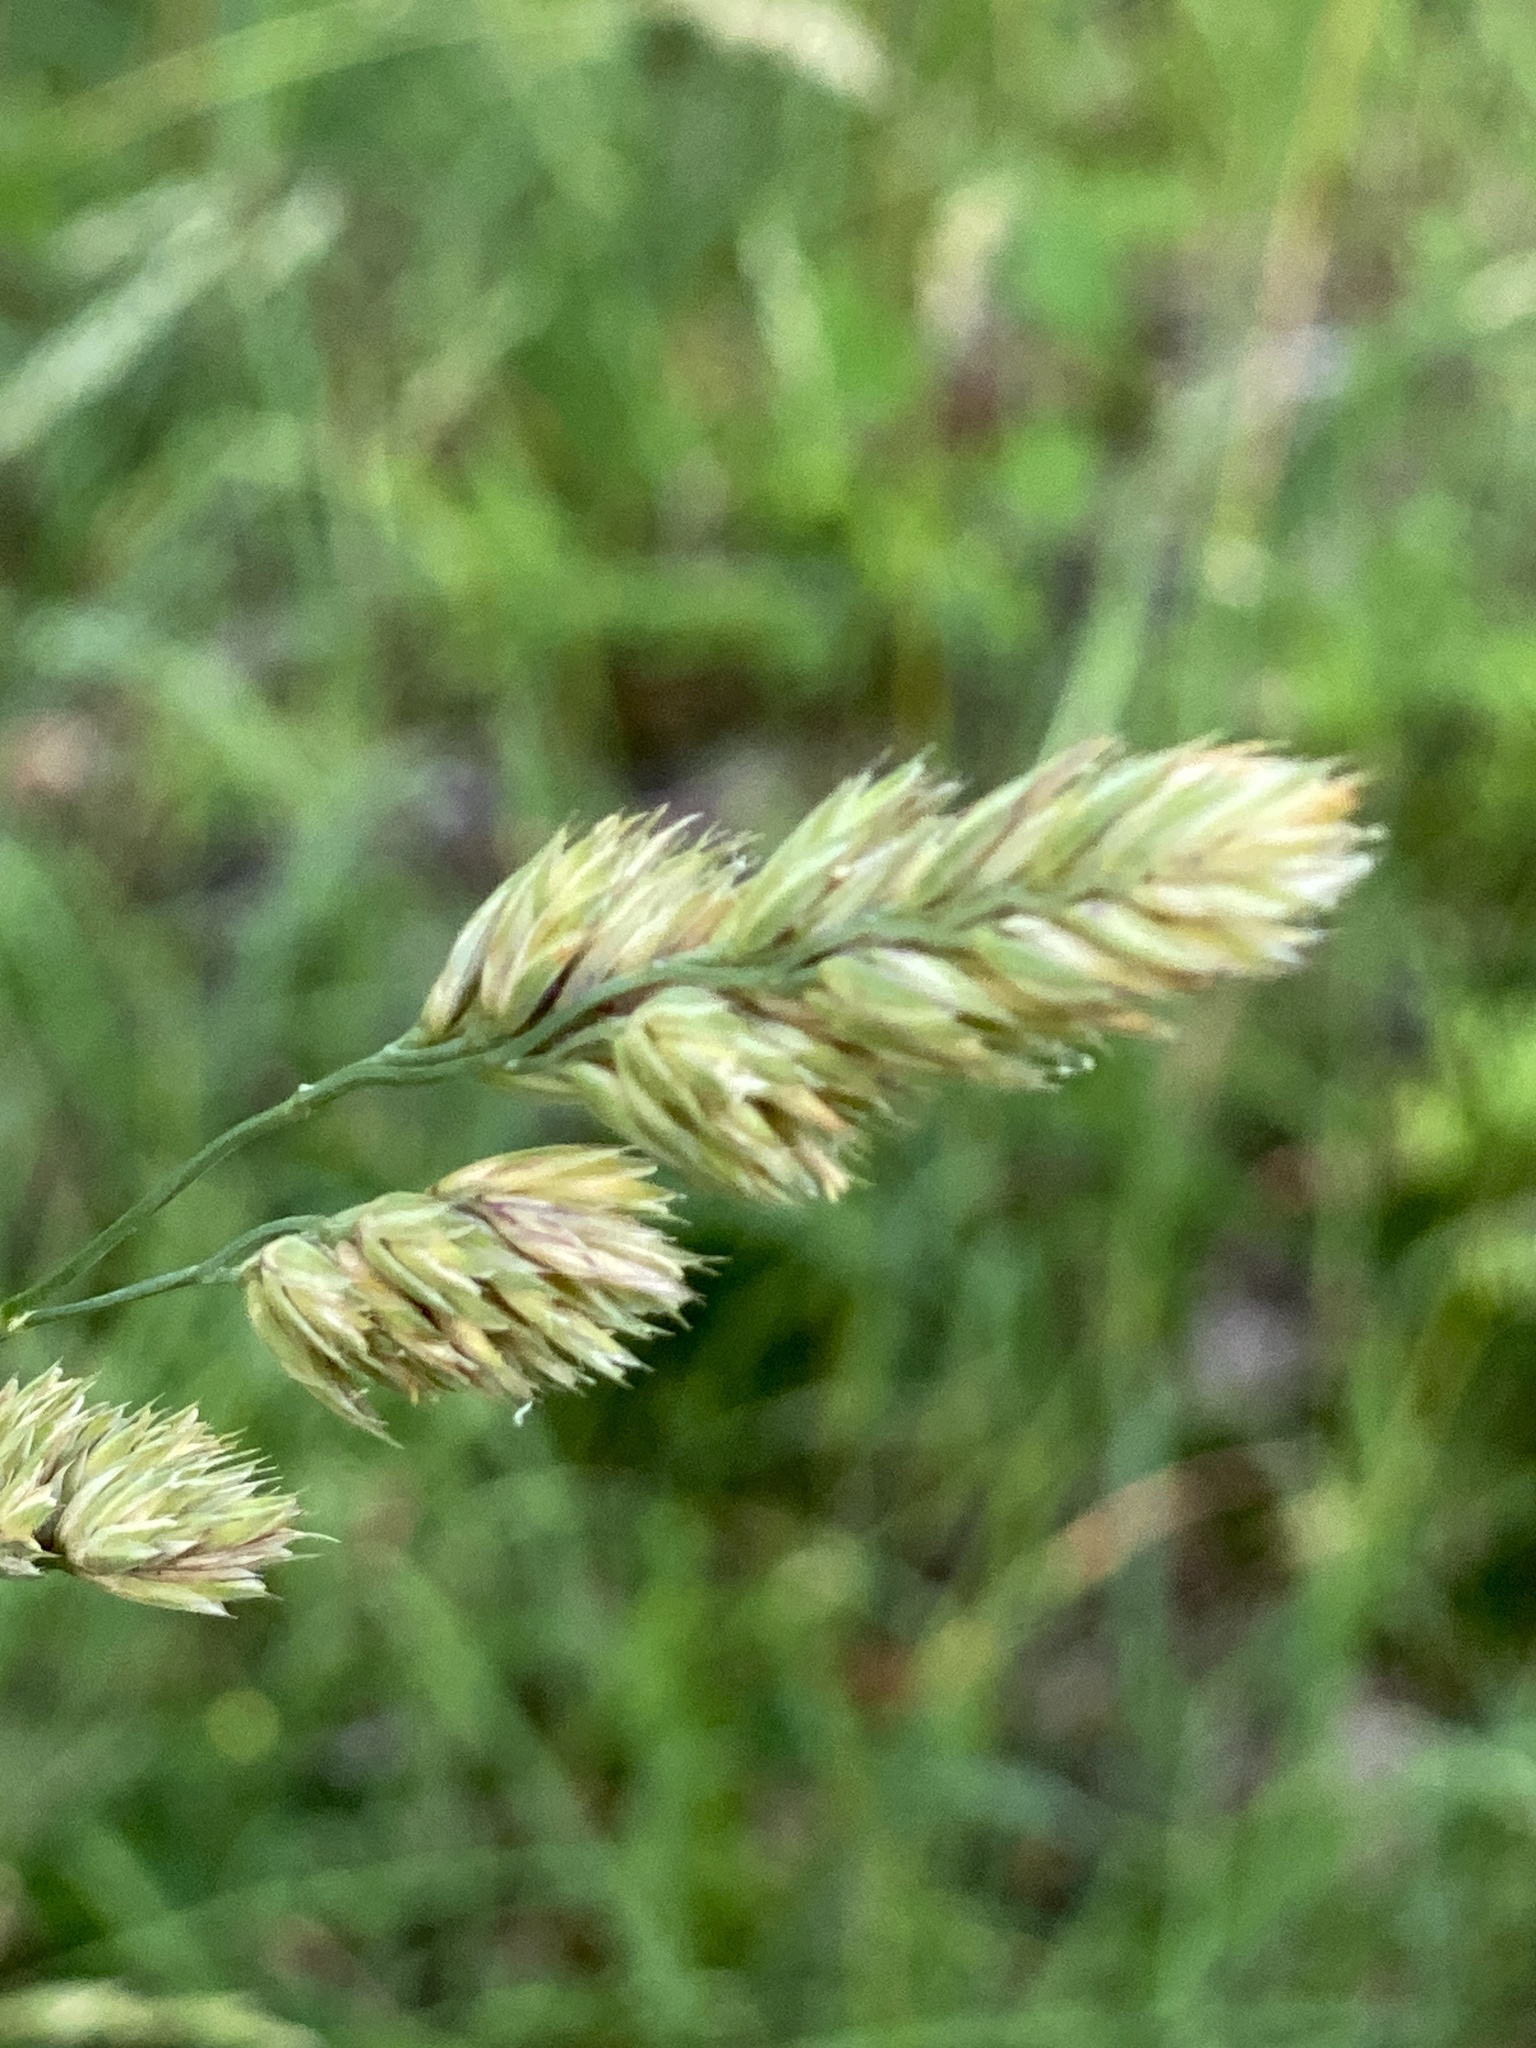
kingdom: Plantae
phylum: Tracheophyta
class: Liliopsida
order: Poales
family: Poaceae
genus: Dactylis
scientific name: Dactylis glomerata
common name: Orchardgrass
